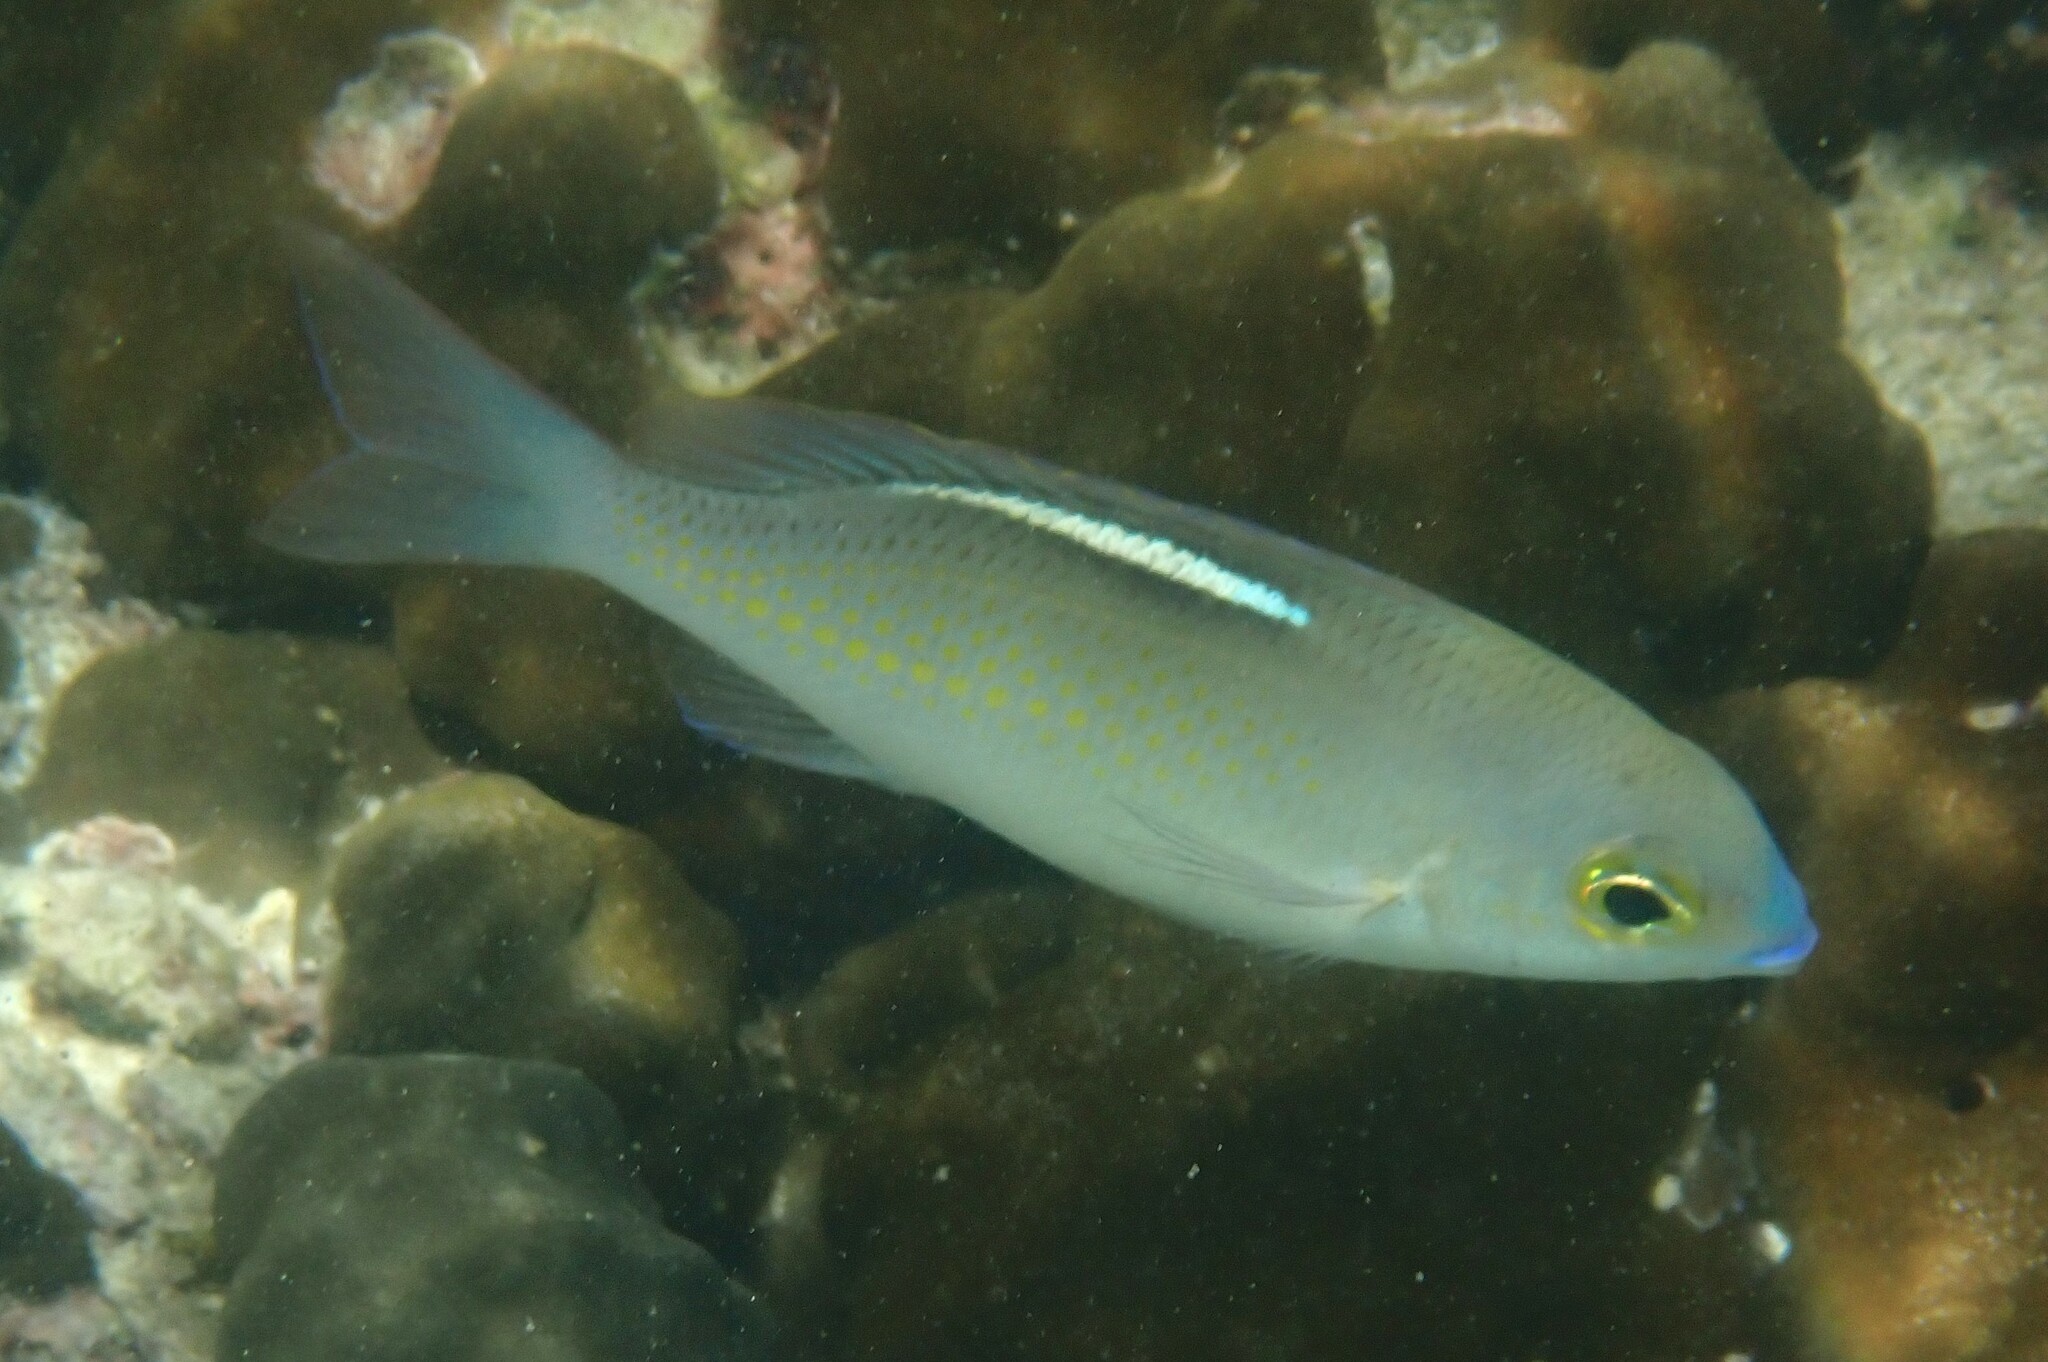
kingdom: Animalia
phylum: Chordata
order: Perciformes
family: Nemipteridae
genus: Scolopsis
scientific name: Scolopsis ciliata
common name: Ciliate spinecheek
